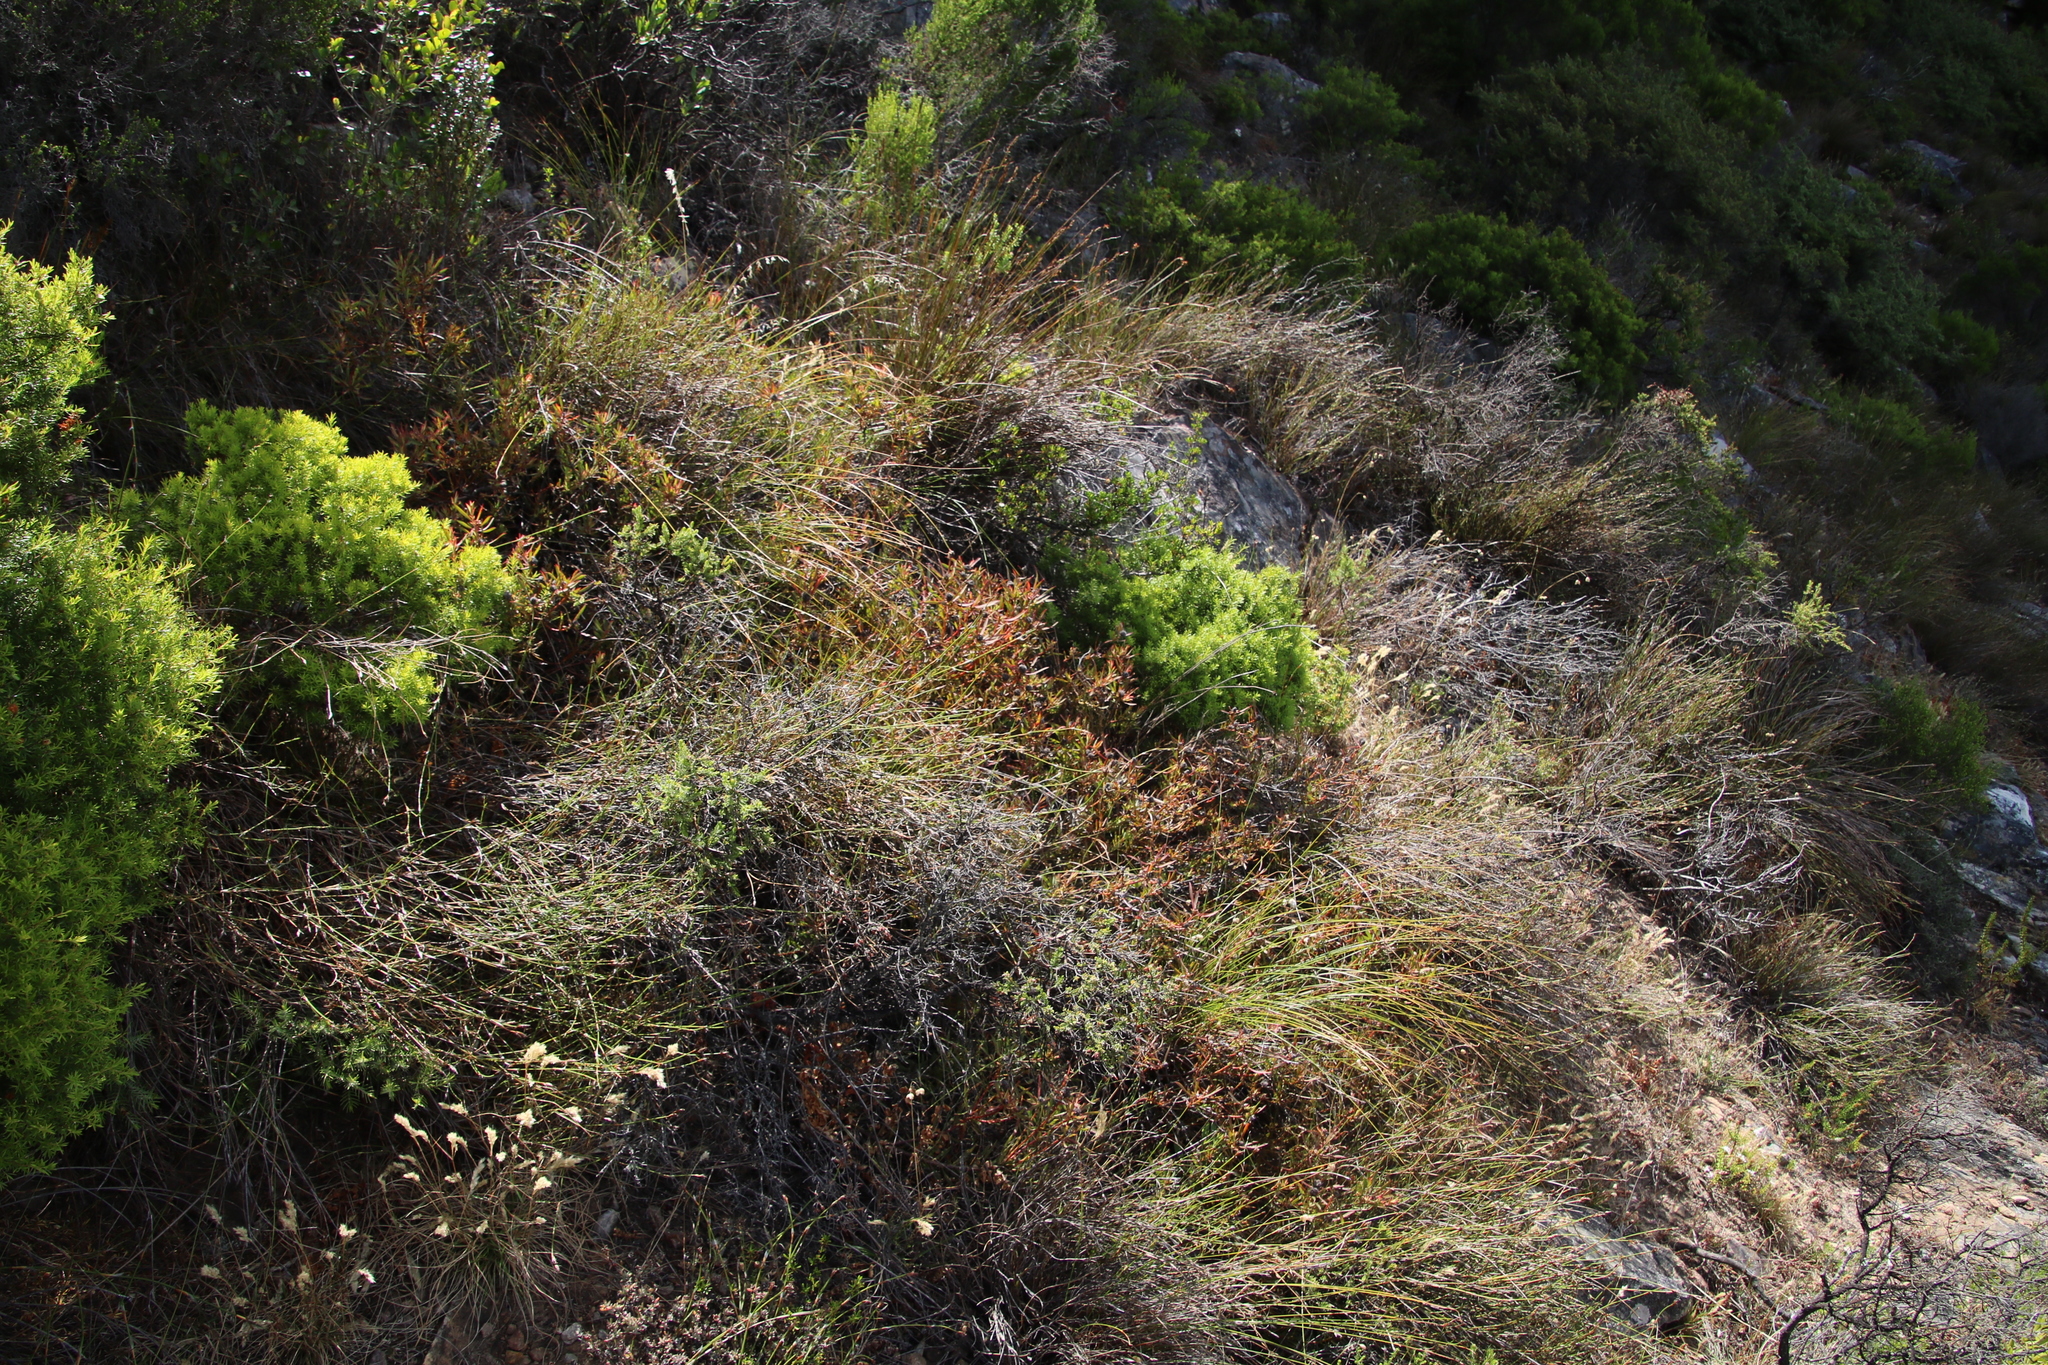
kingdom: Plantae
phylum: Tracheophyta
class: Magnoliopsida
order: Proteales
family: Proteaceae
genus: Leucadendron
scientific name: Leucadendron salignum
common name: Common sunshine conebush
